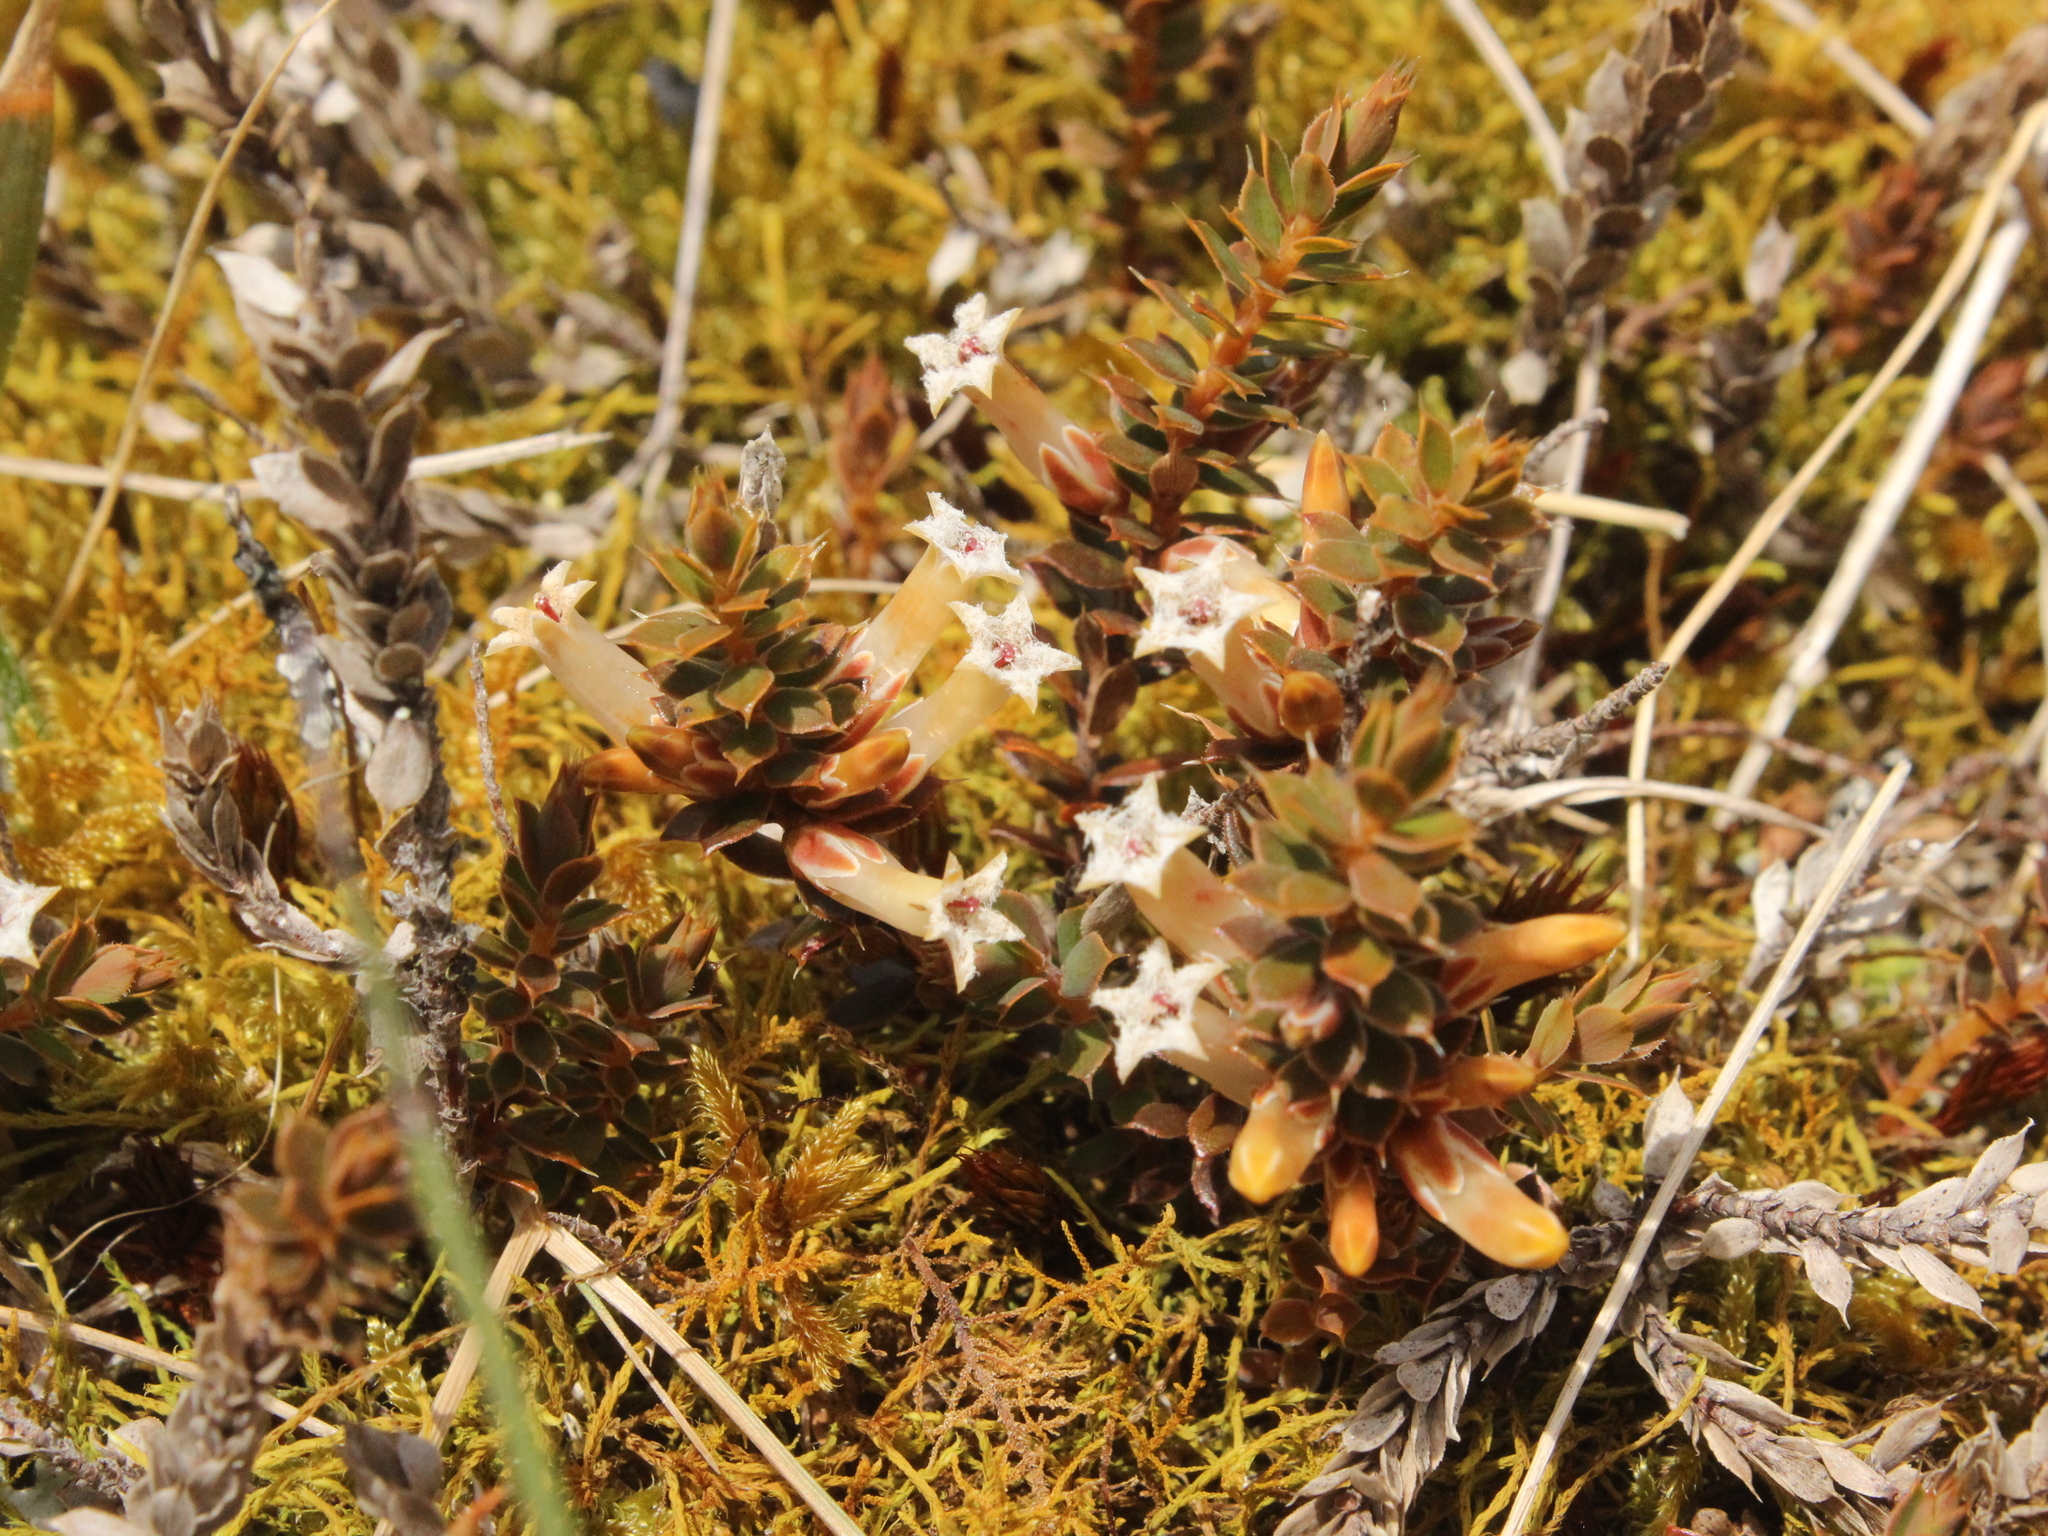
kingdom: Plantae
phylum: Tracheophyta
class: Magnoliopsida
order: Ericales
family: Ericaceae
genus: Styphelia
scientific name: Styphelia nesophila
